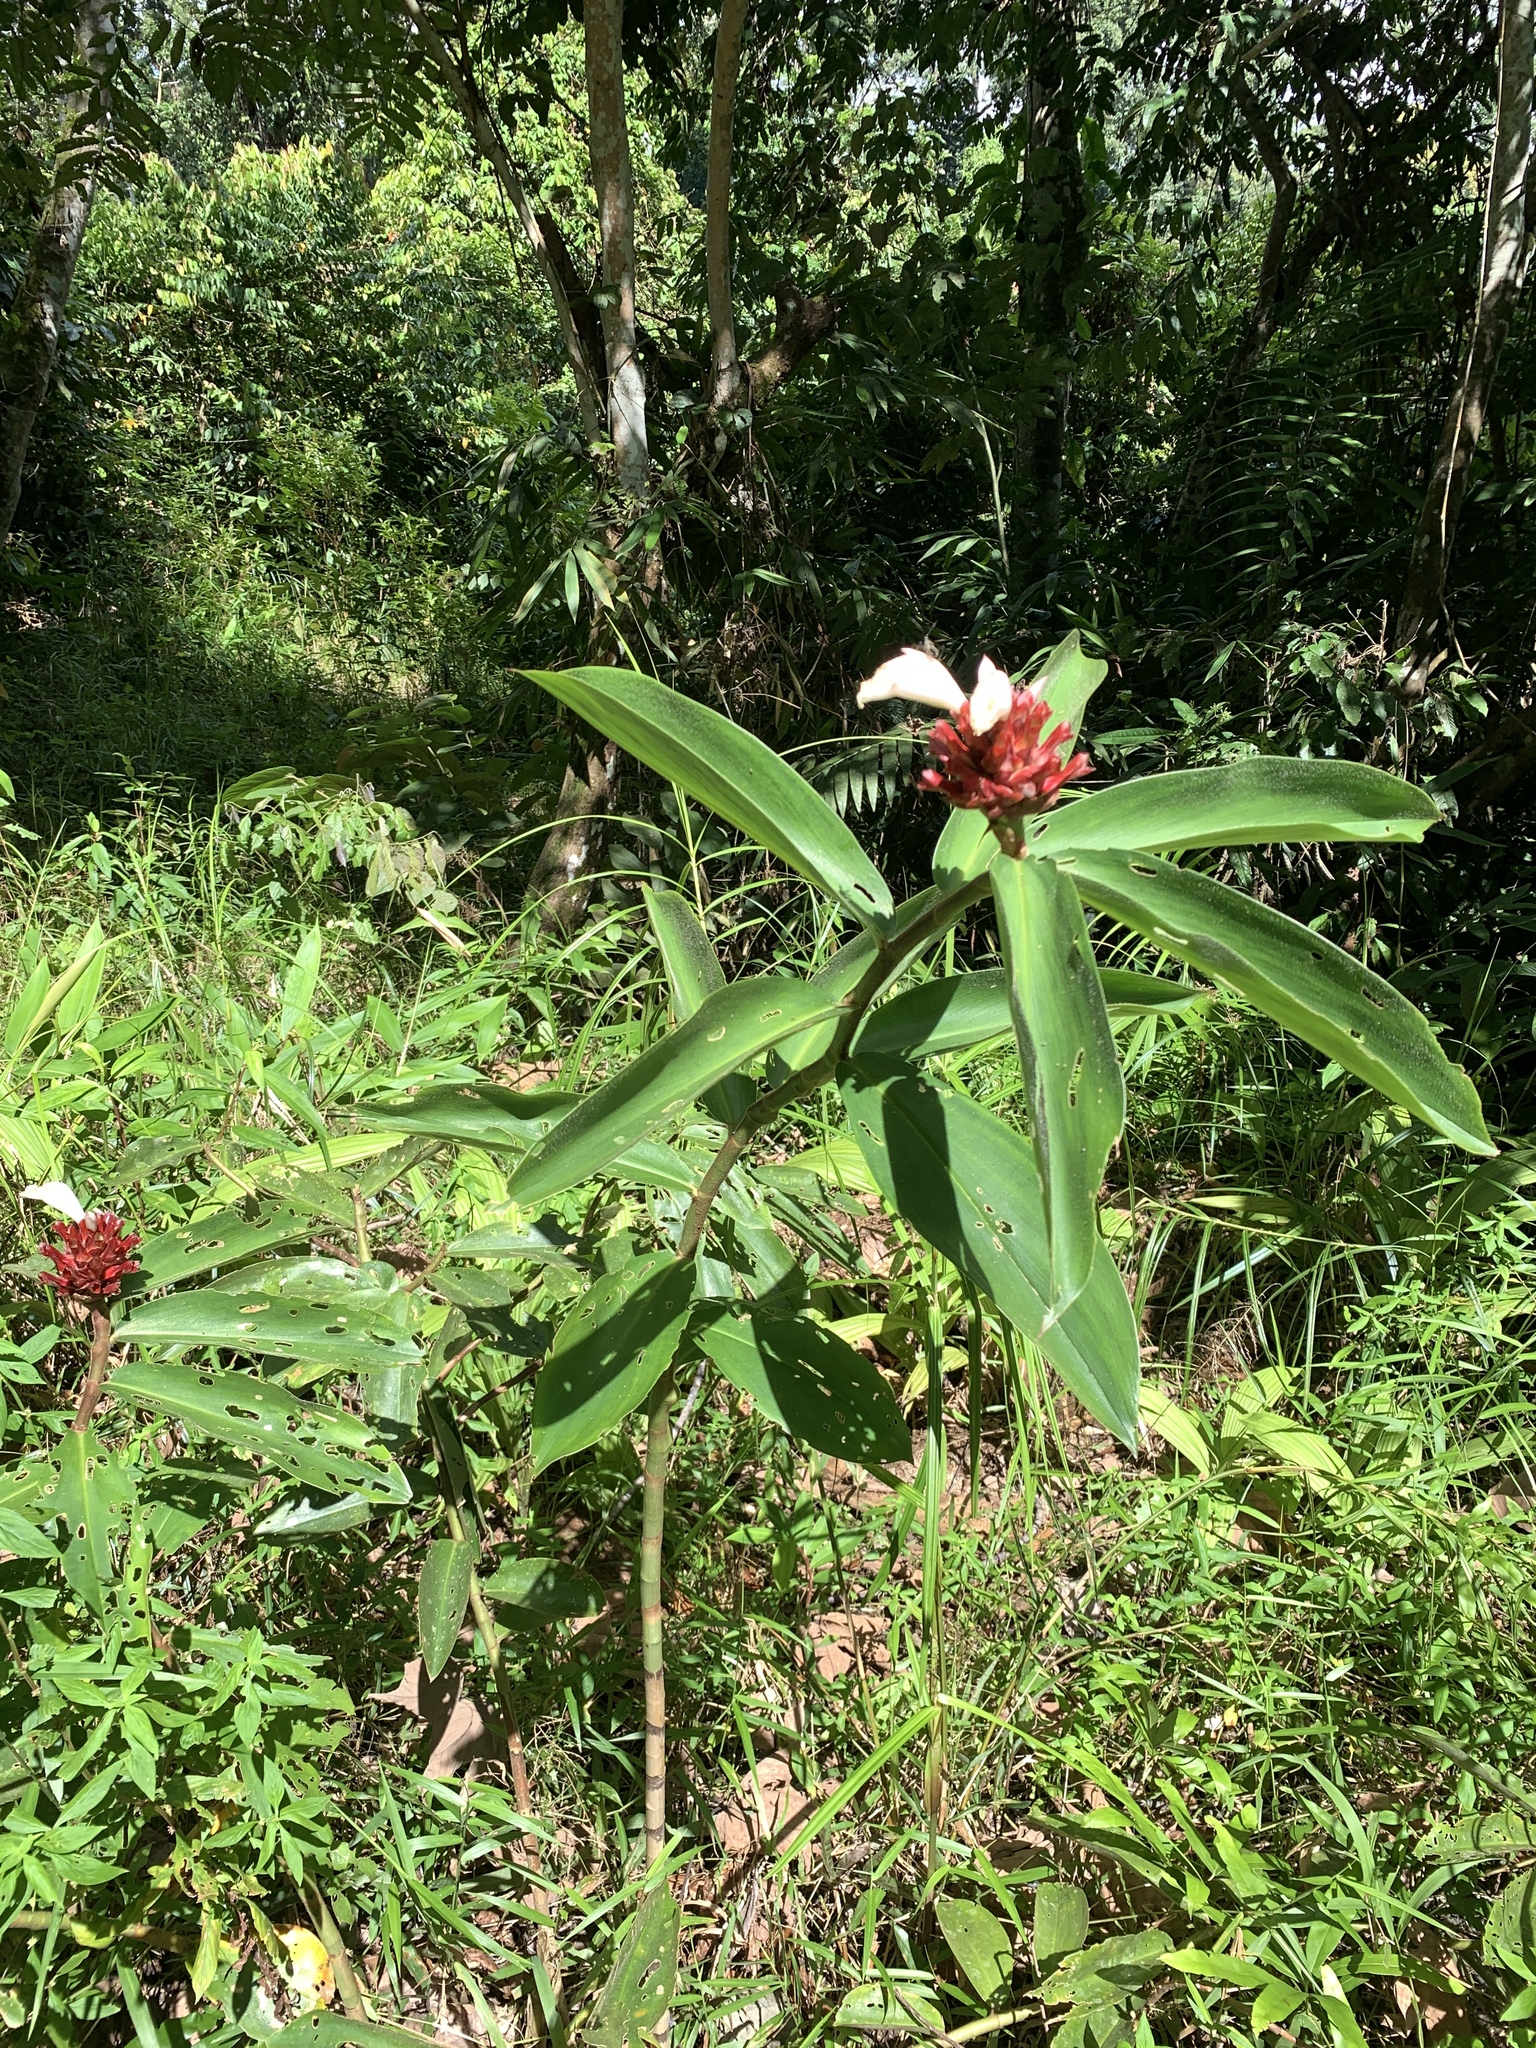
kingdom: Plantae
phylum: Tracheophyta
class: Liliopsida
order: Zingiberales
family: Costaceae
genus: Hellenia
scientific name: Hellenia speciosa
